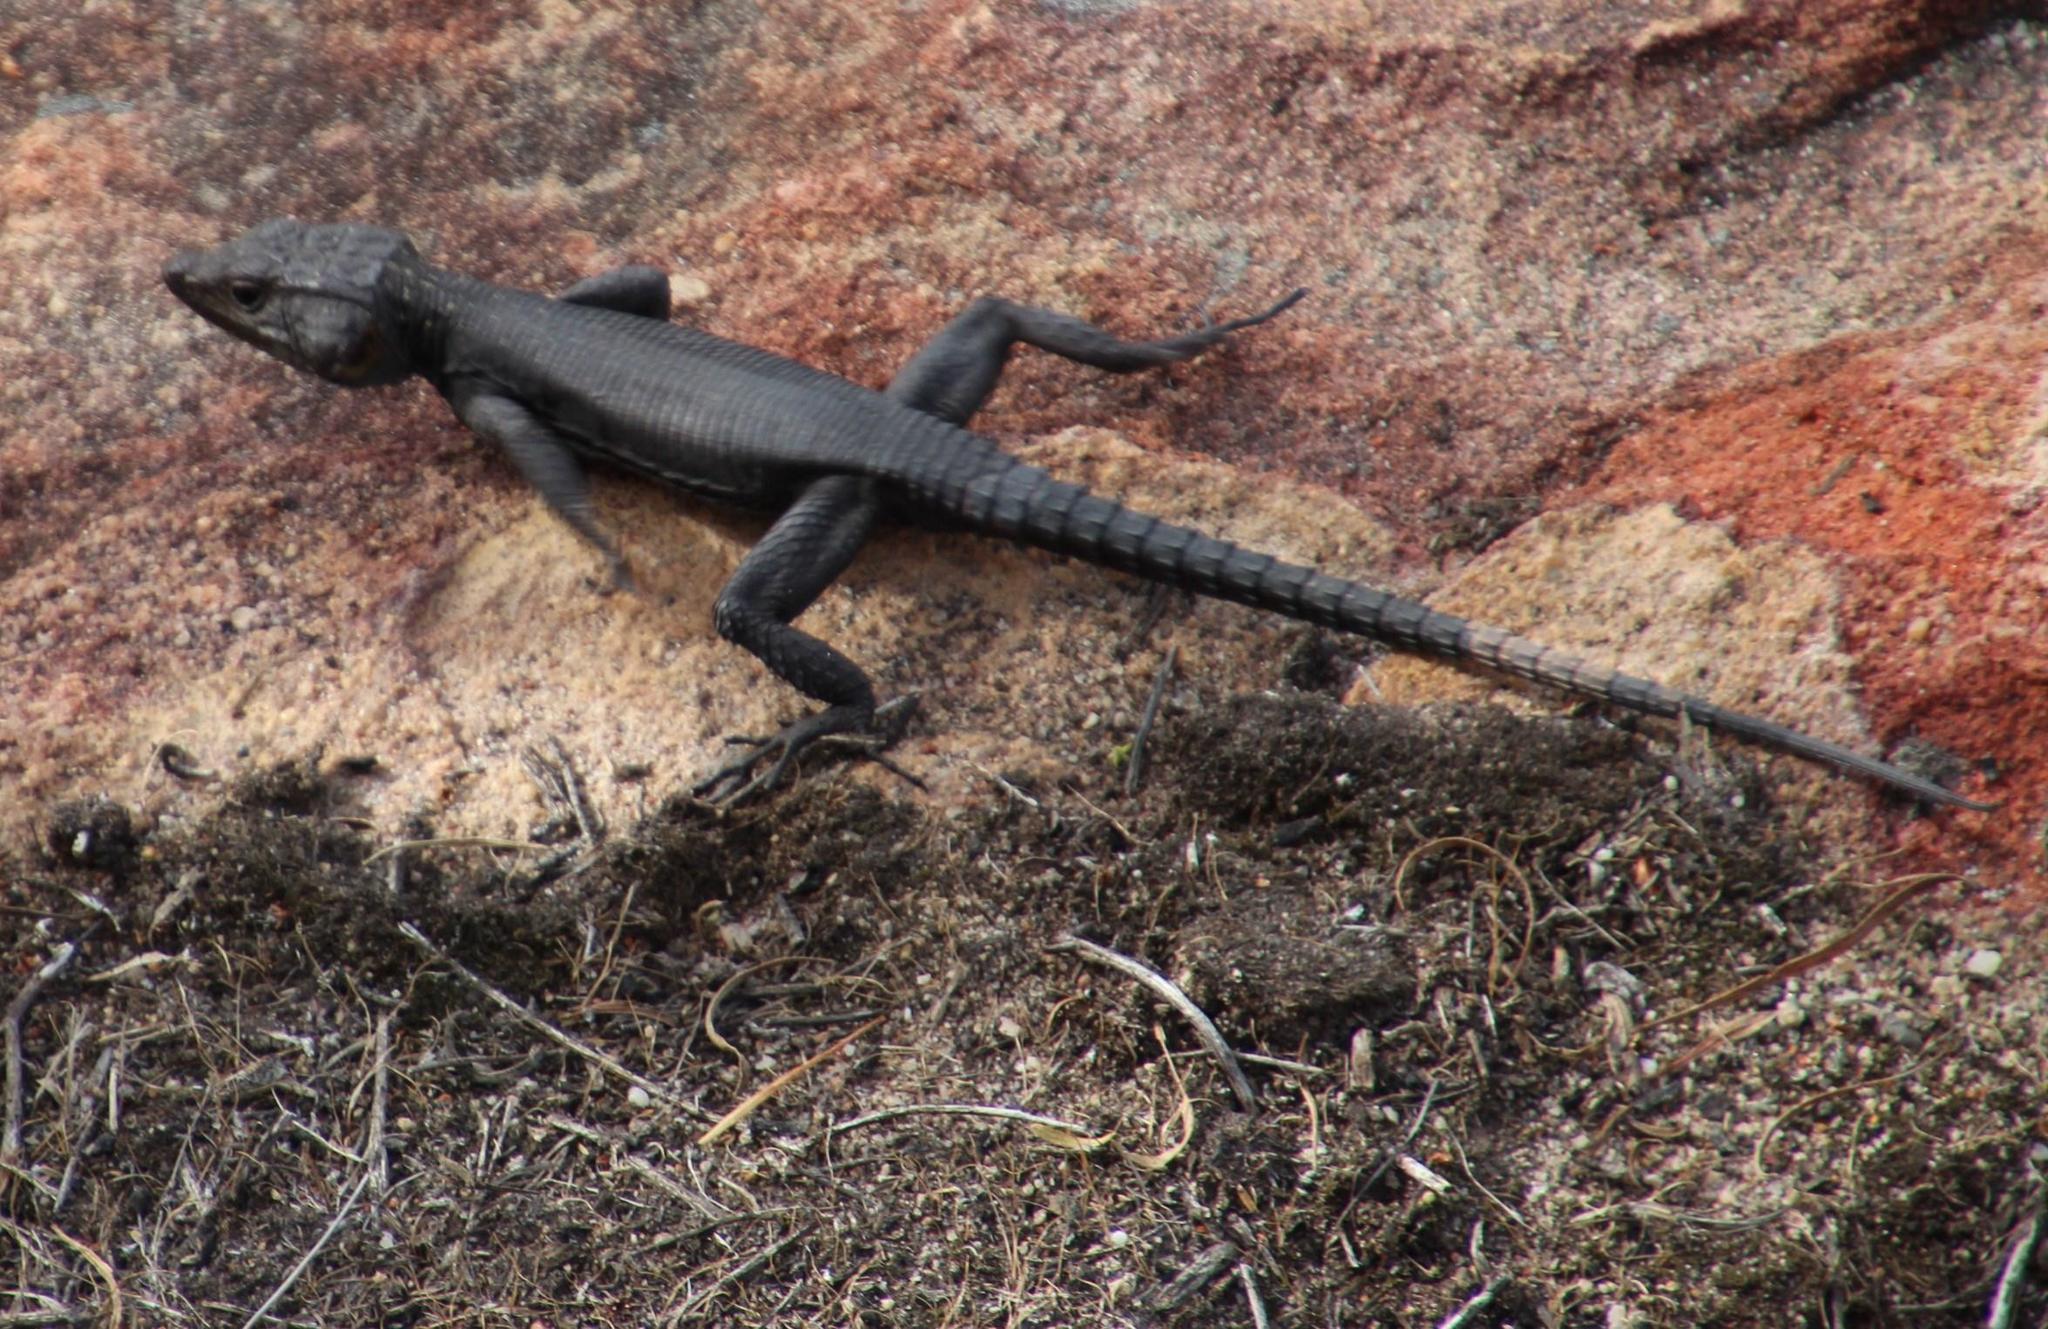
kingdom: Animalia
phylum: Chordata
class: Squamata
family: Cordylidae
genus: Hemicordylus
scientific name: Hemicordylus capensis
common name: Graceful crag lizard
